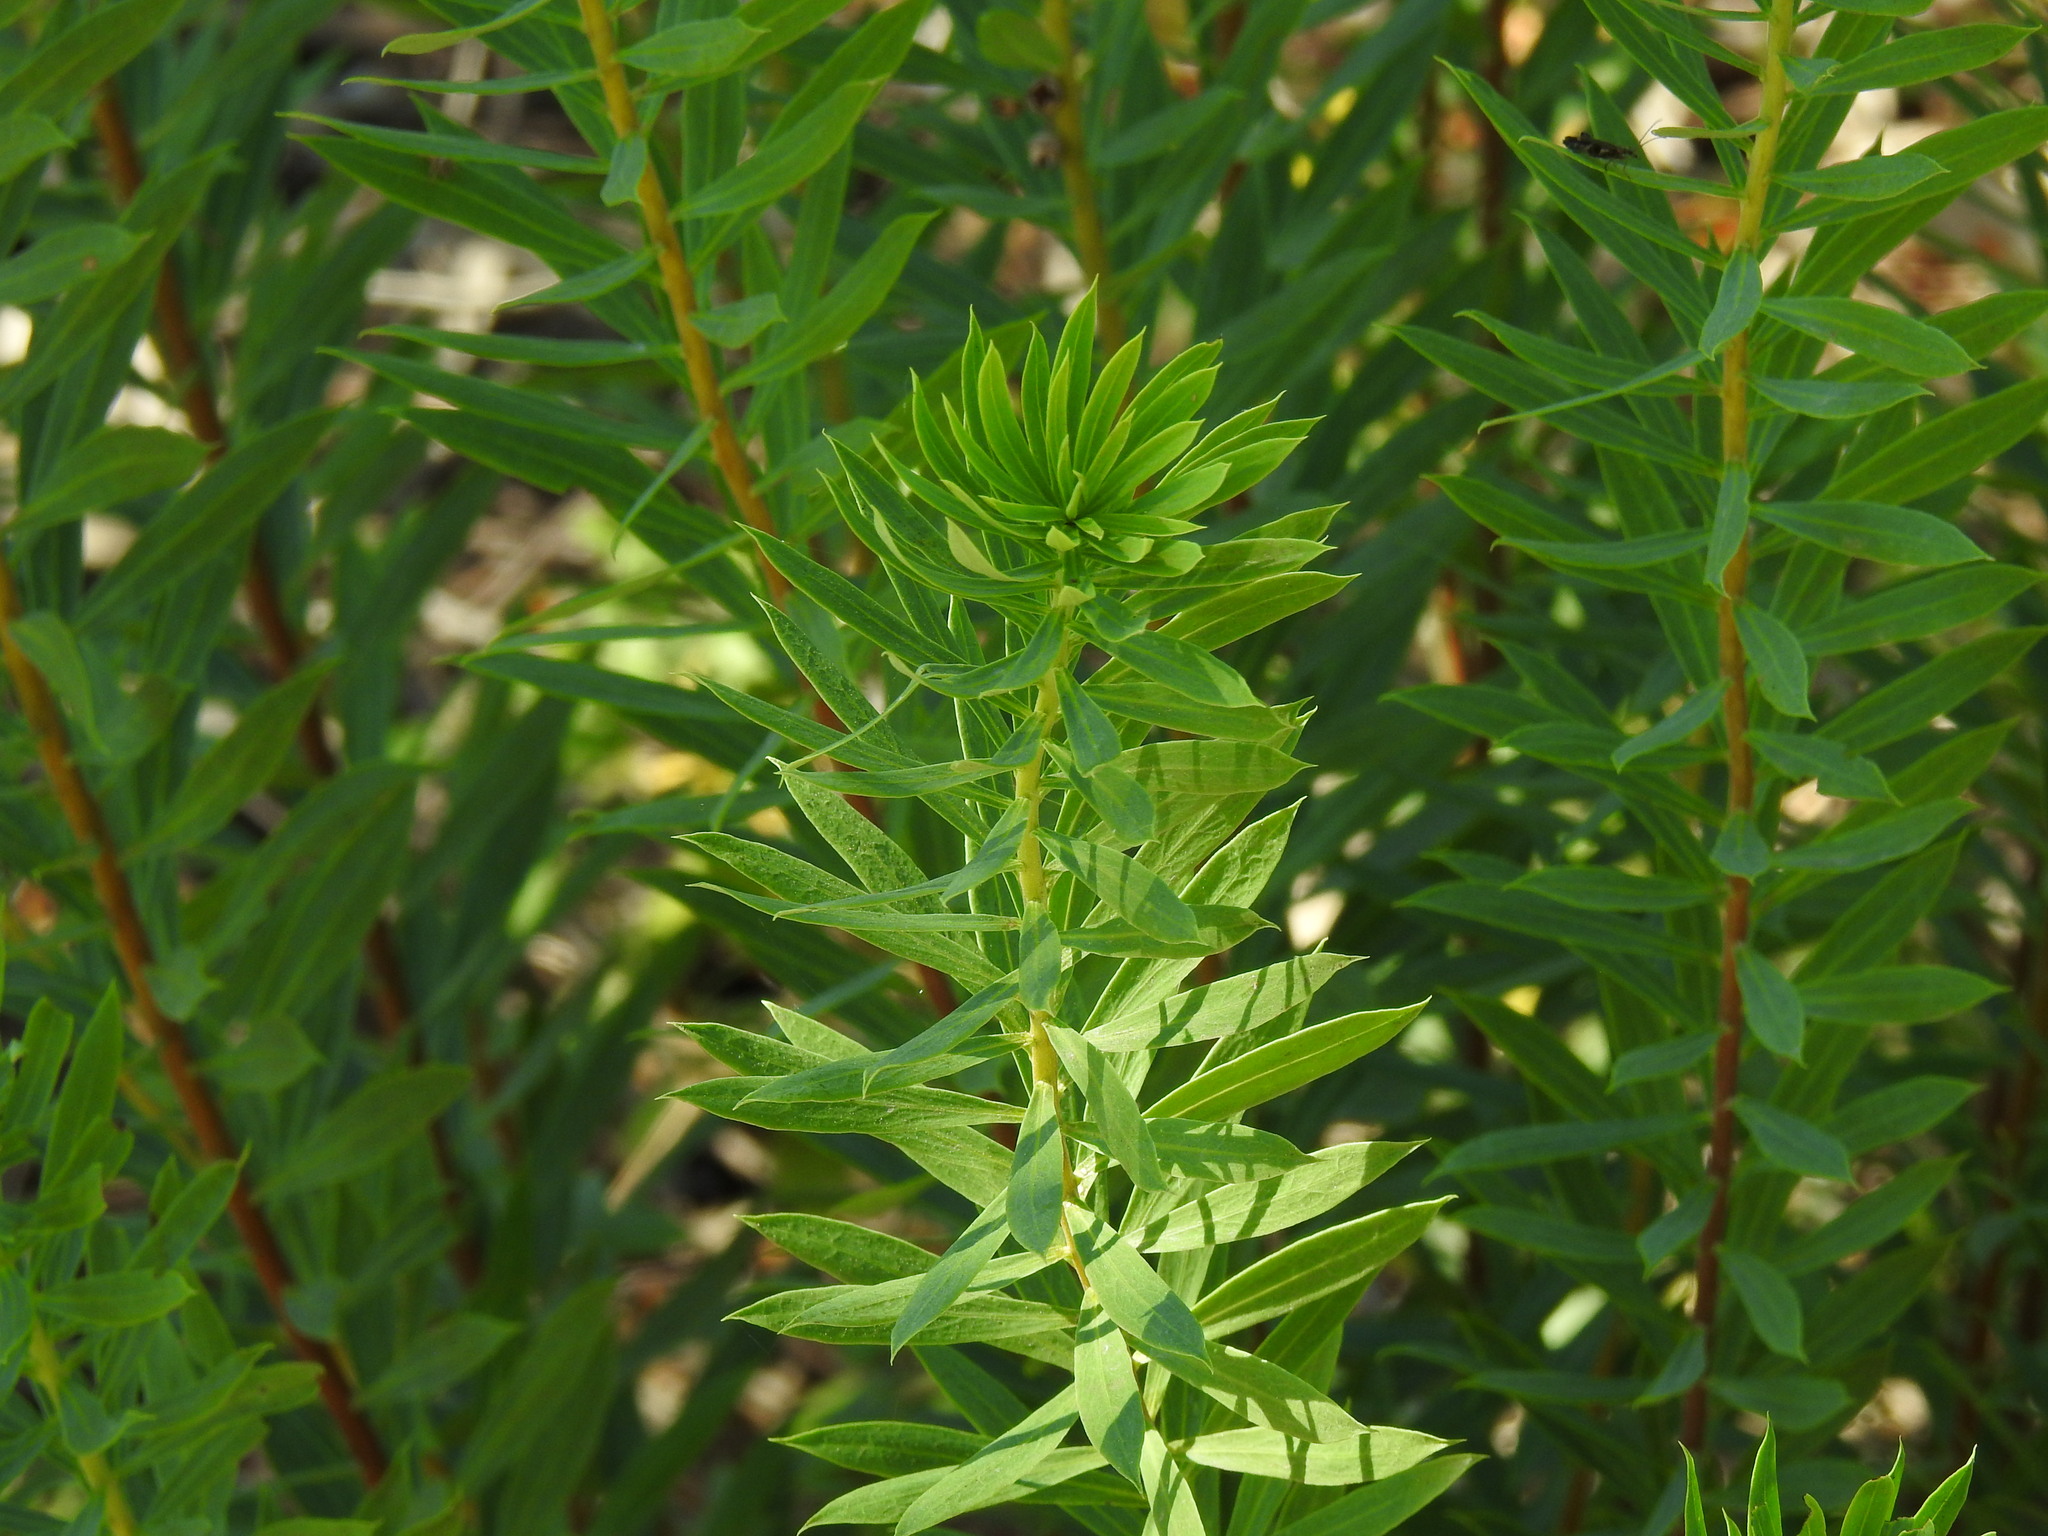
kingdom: Plantae
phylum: Tracheophyta
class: Magnoliopsida
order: Malvales
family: Thymelaeaceae
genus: Daphne
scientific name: Daphne gnidium
